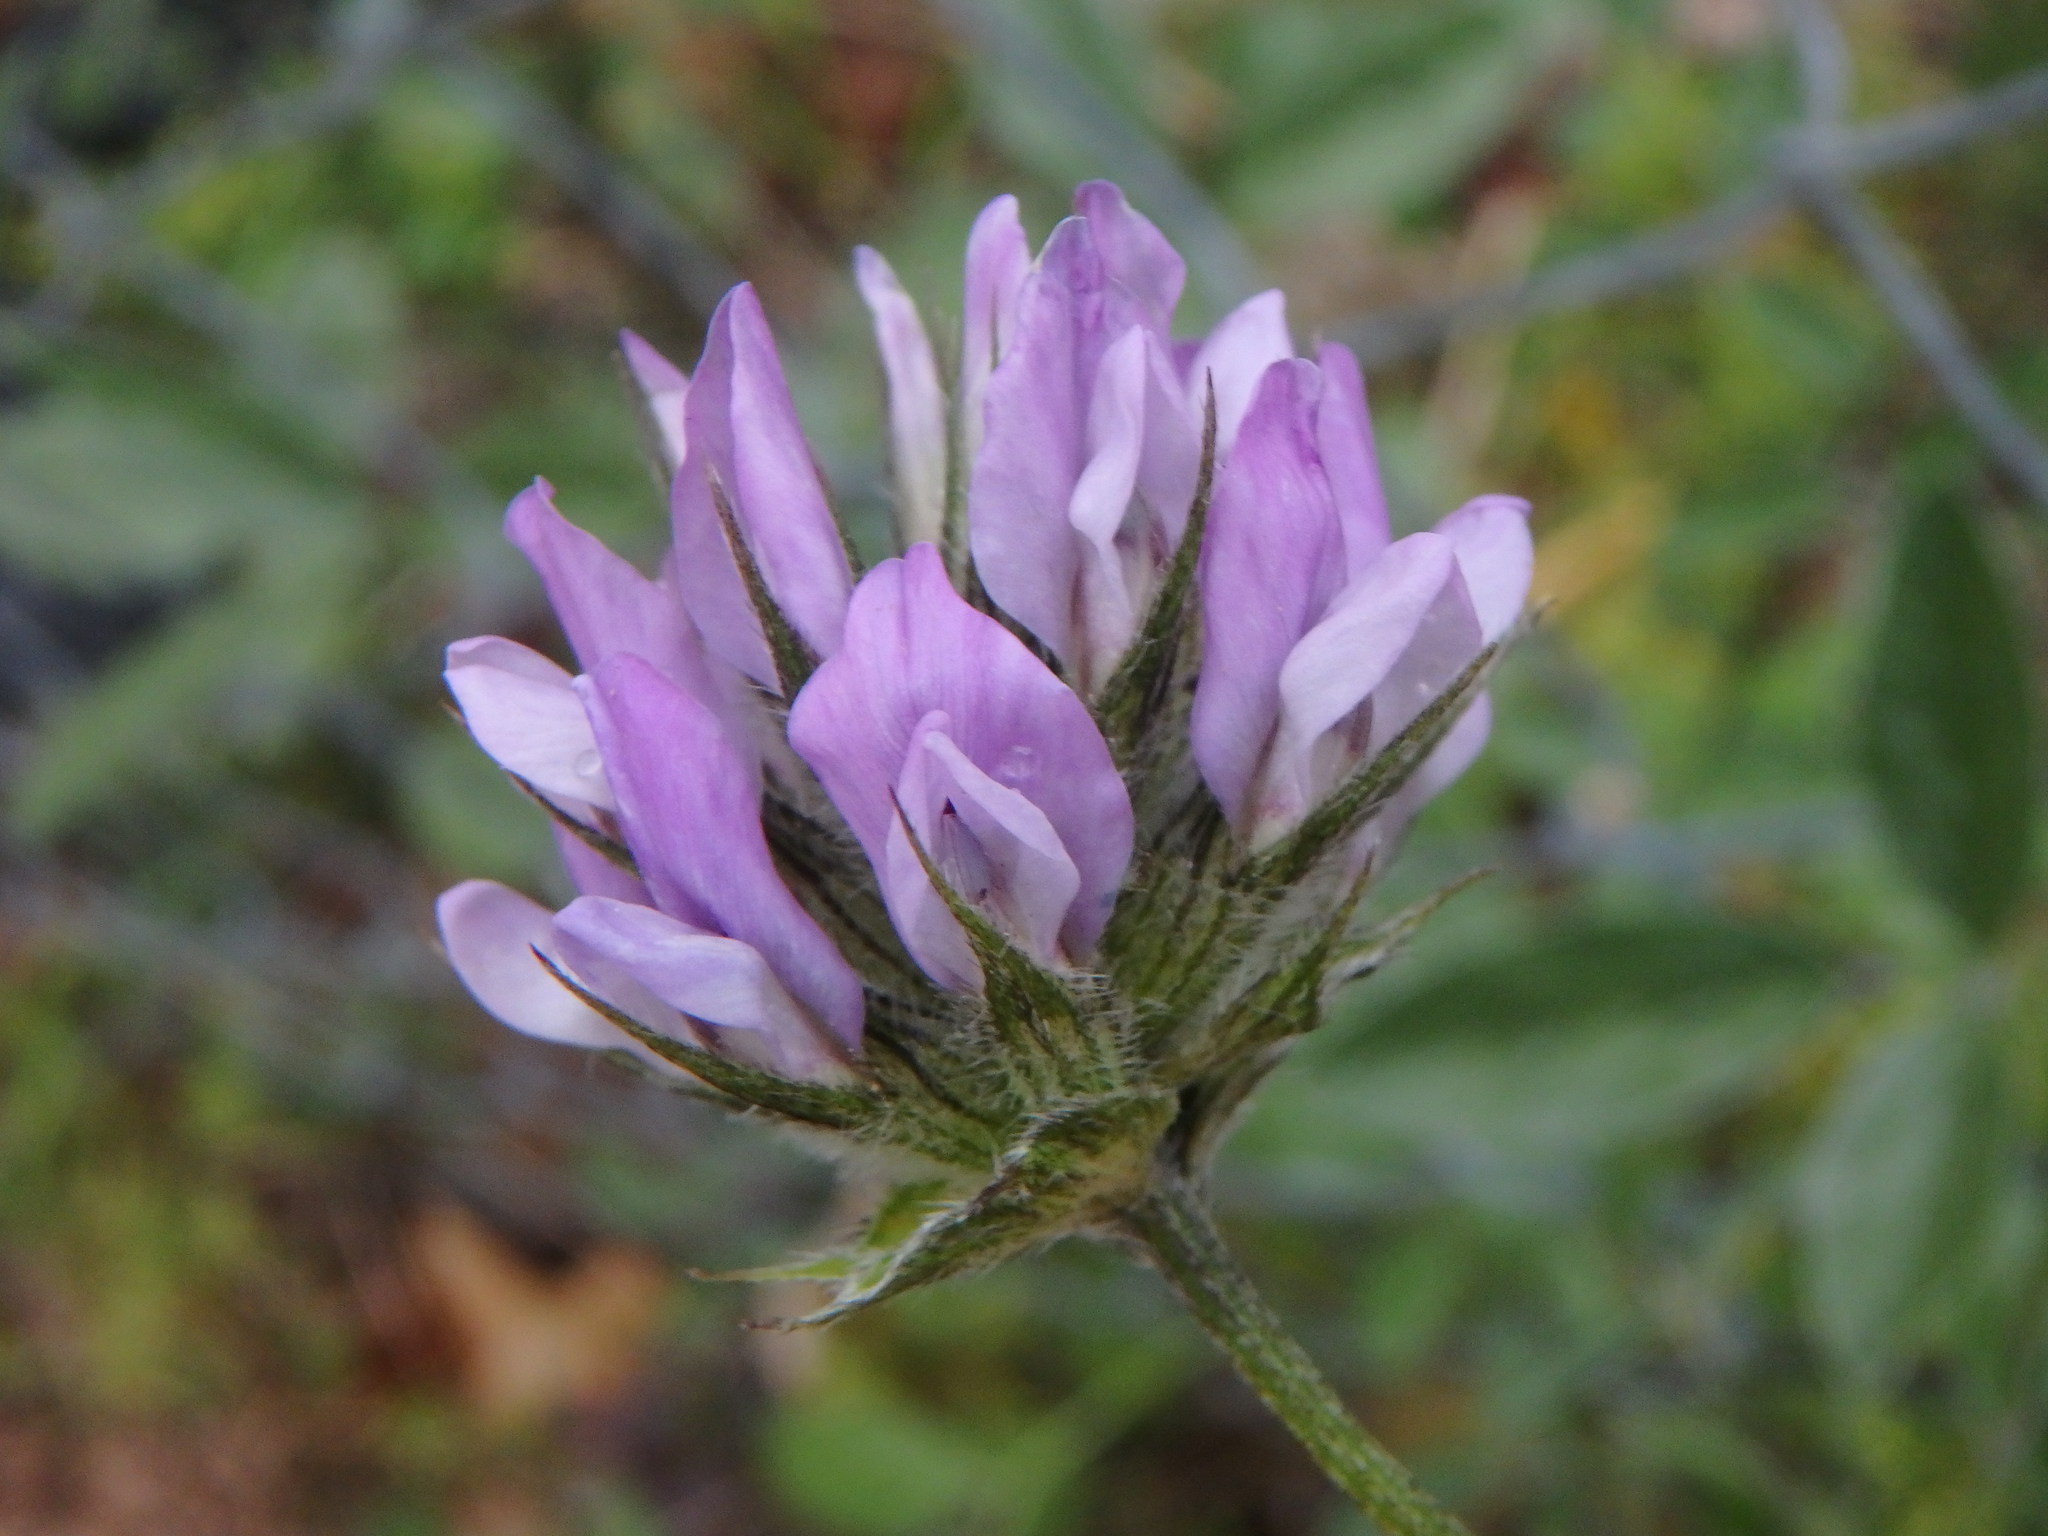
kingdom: Plantae
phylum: Tracheophyta
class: Magnoliopsida
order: Fabales
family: Fabaceae
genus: Bituminaria
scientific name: Bituminaria bituminosa
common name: Arabian pea
